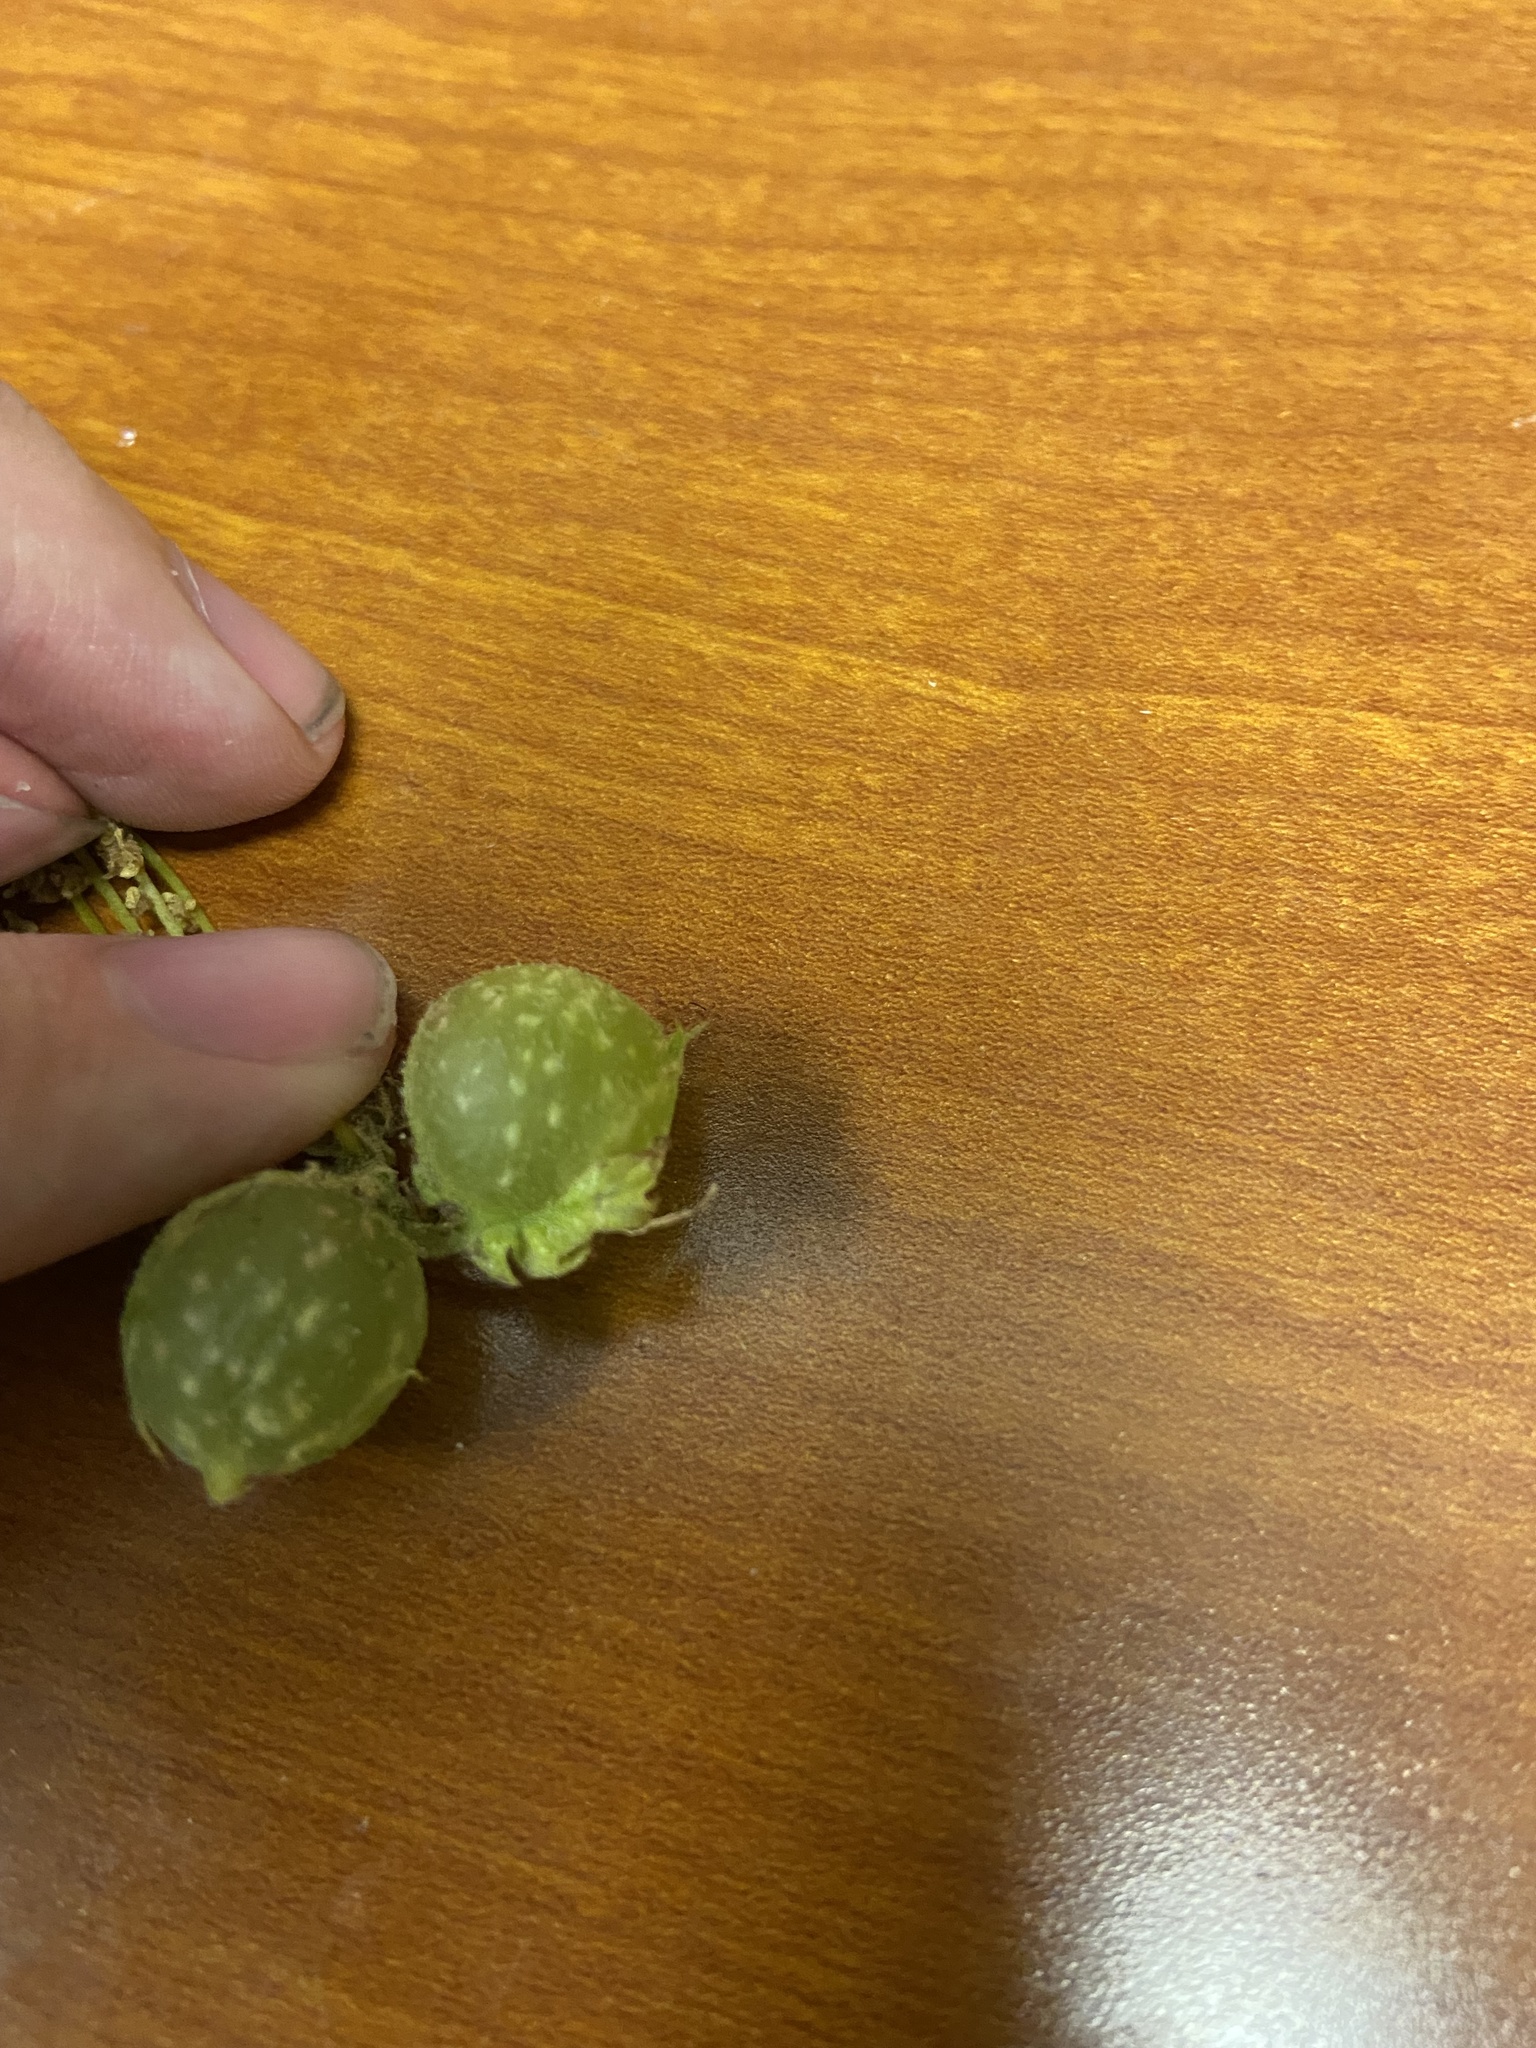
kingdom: Animalia
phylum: Arthropoda
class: Insecta
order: Hymenoptera
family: Cynipidae
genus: Dryocosmus
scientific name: Dryocosmus quercuspalustris
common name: Succulent oak gall wasp
